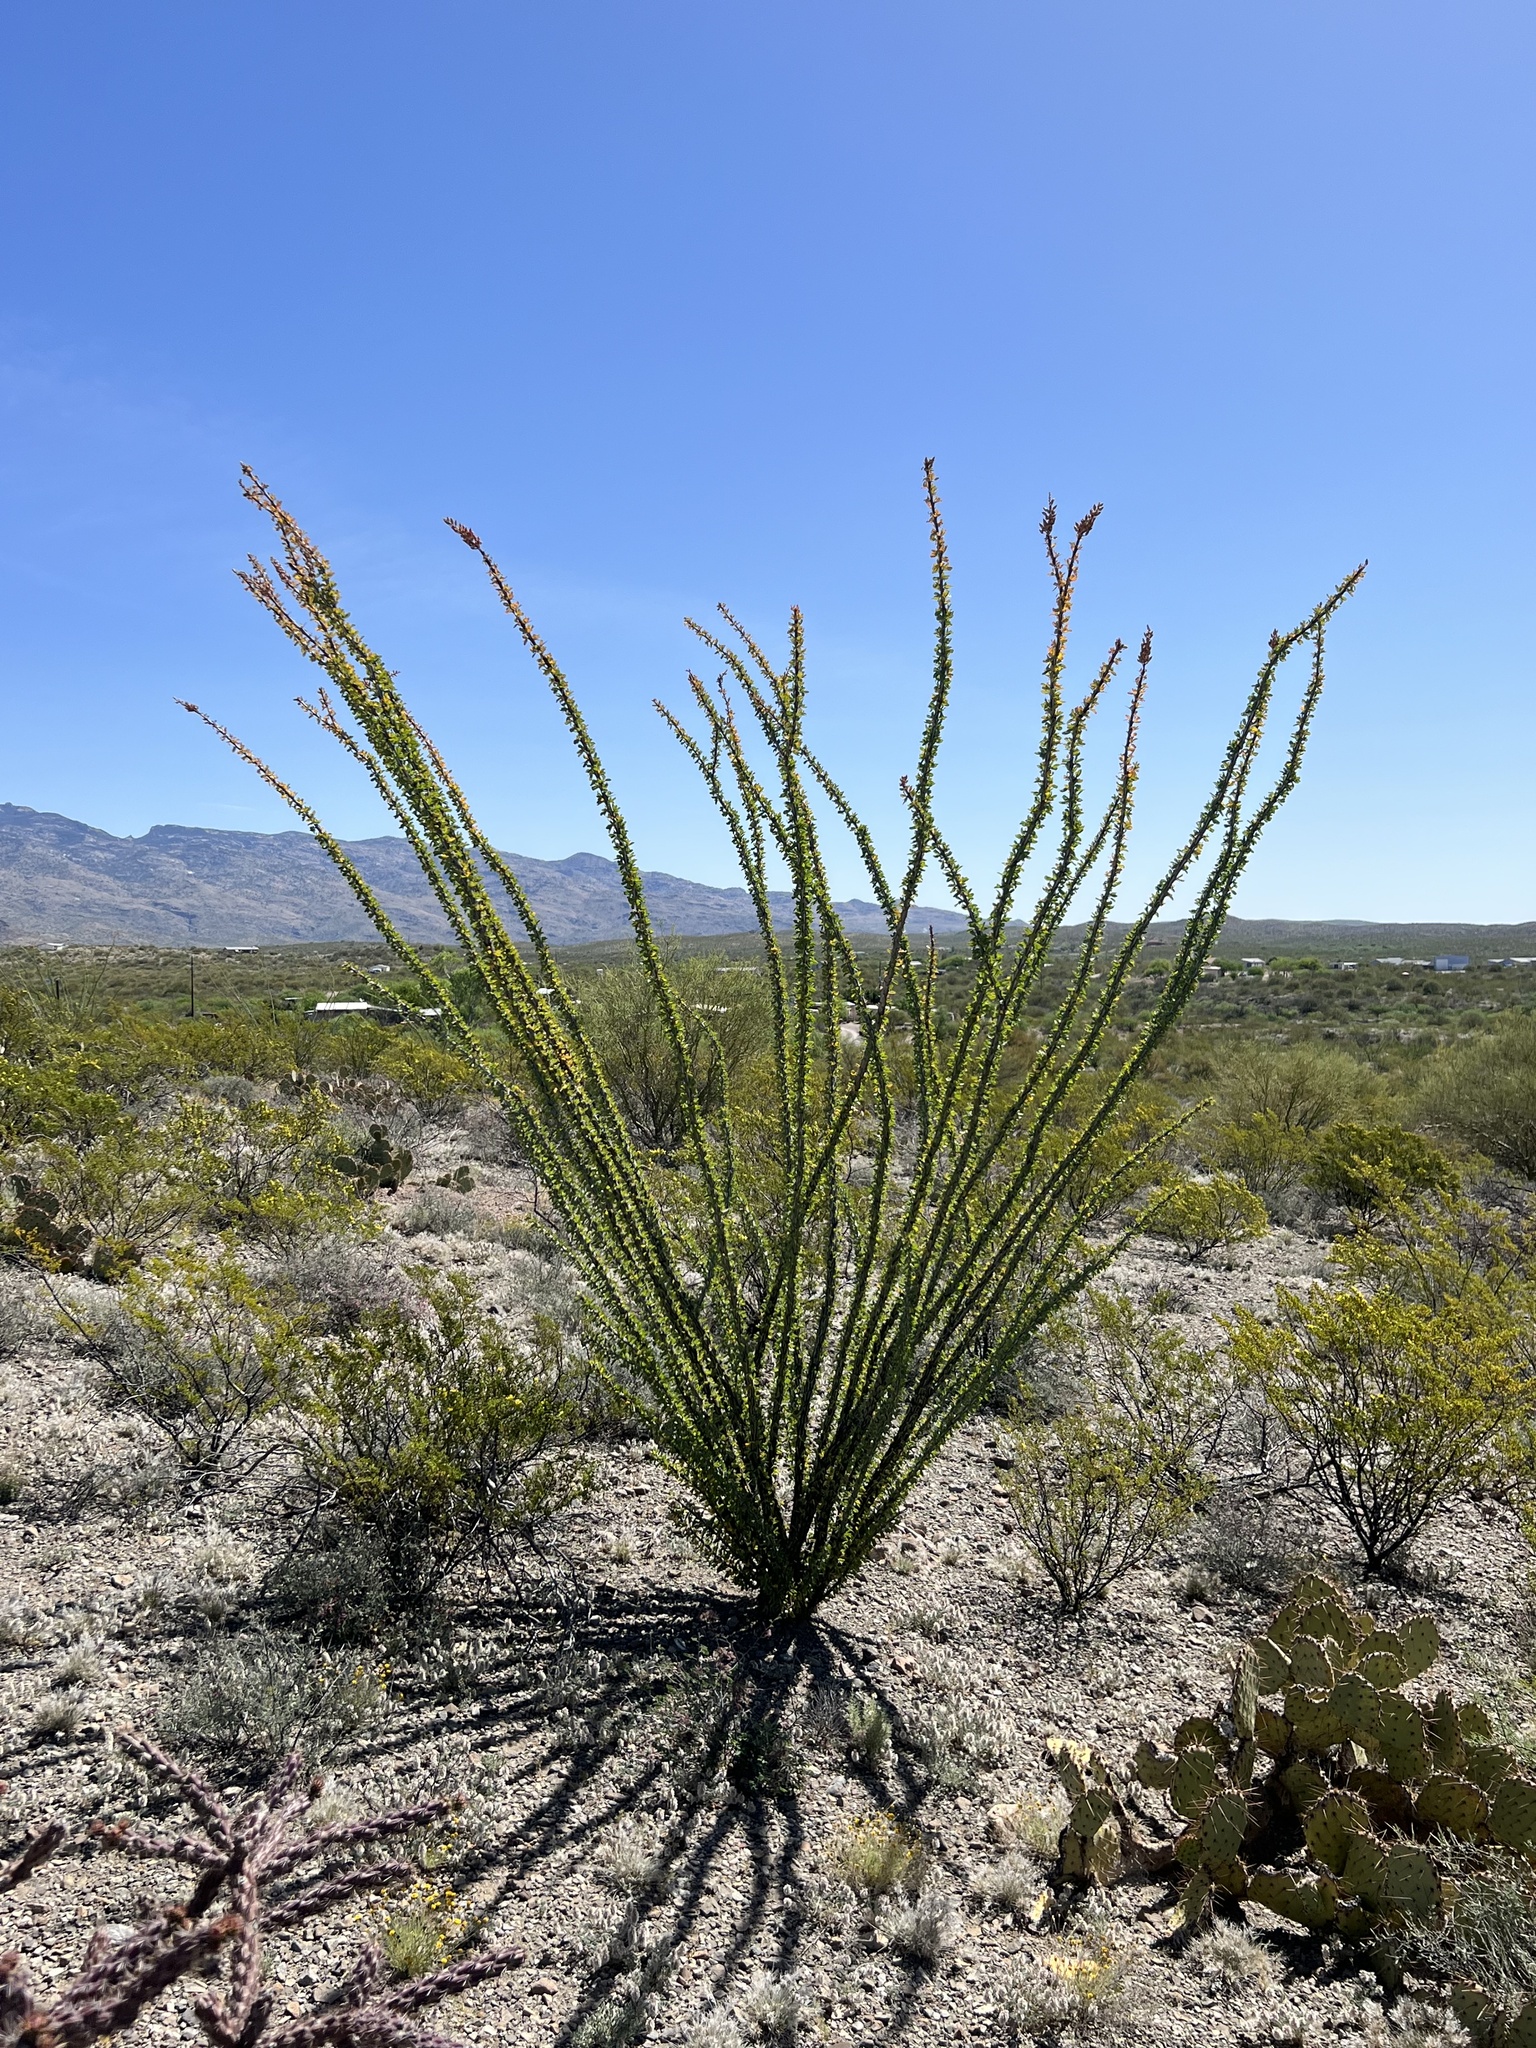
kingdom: Plantae
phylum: Tracheophyta
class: Magnoliopsida
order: Ericales
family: Fouquieriaceae
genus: Fouquieria
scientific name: Fouquieria splendens
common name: Vine-cactus
